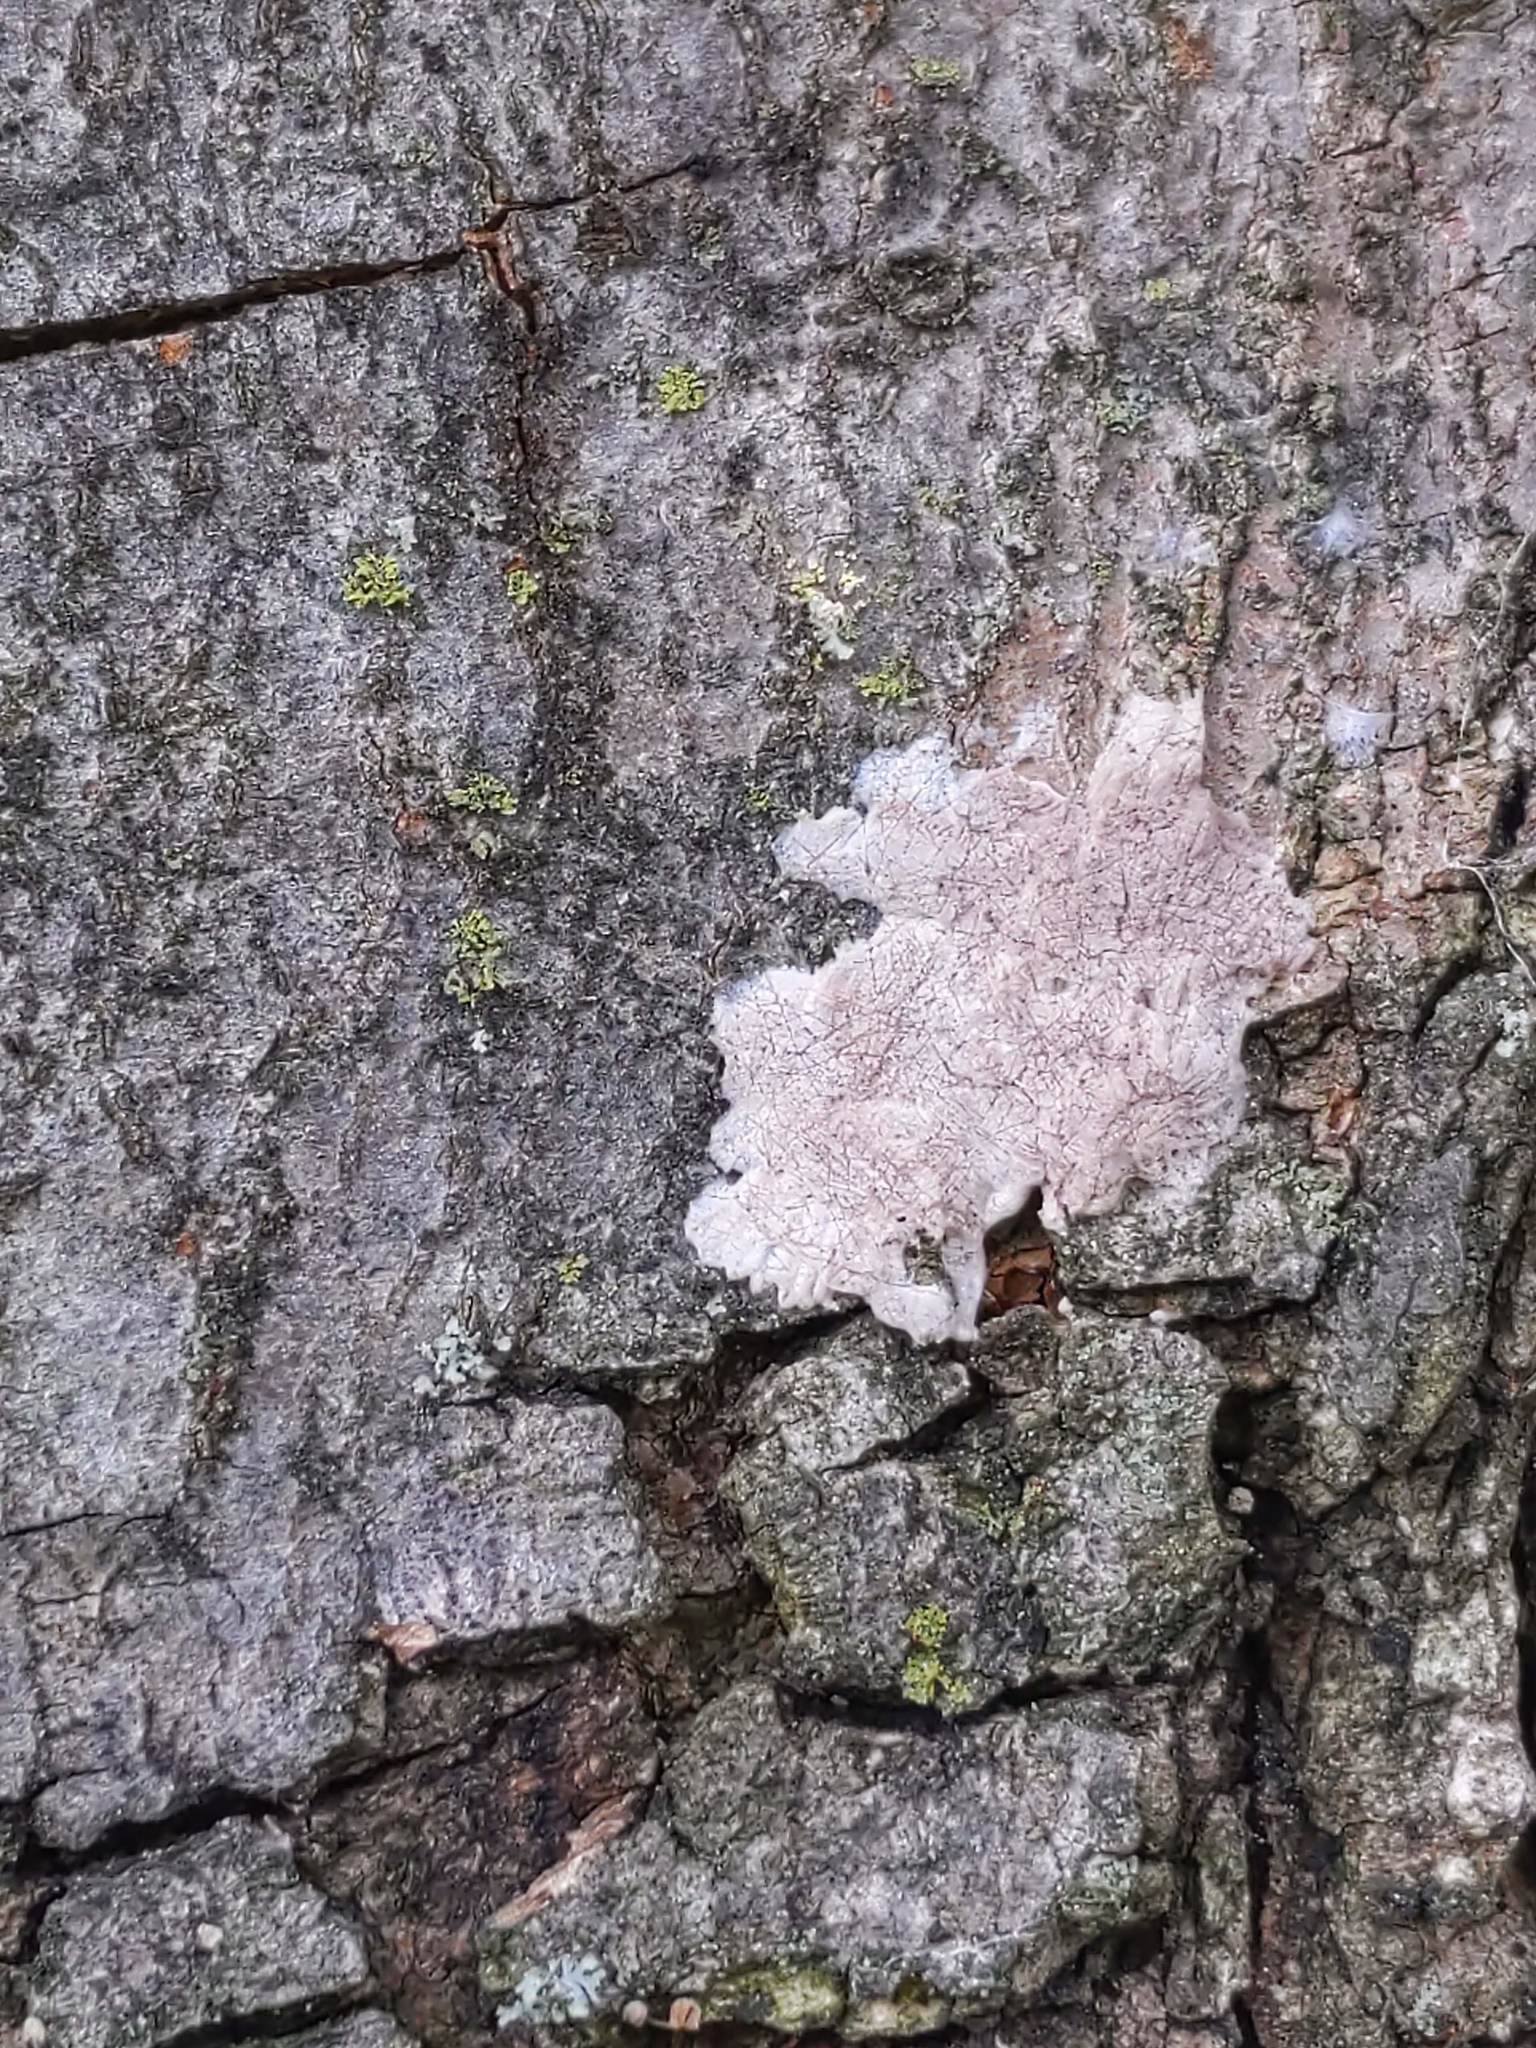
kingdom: Animalia
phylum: Arthropoda
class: Insecta
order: Hemiptera
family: Fulgoridae
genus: Lycorma
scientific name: Lycorma delicatula
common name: Spotted lanternfly
